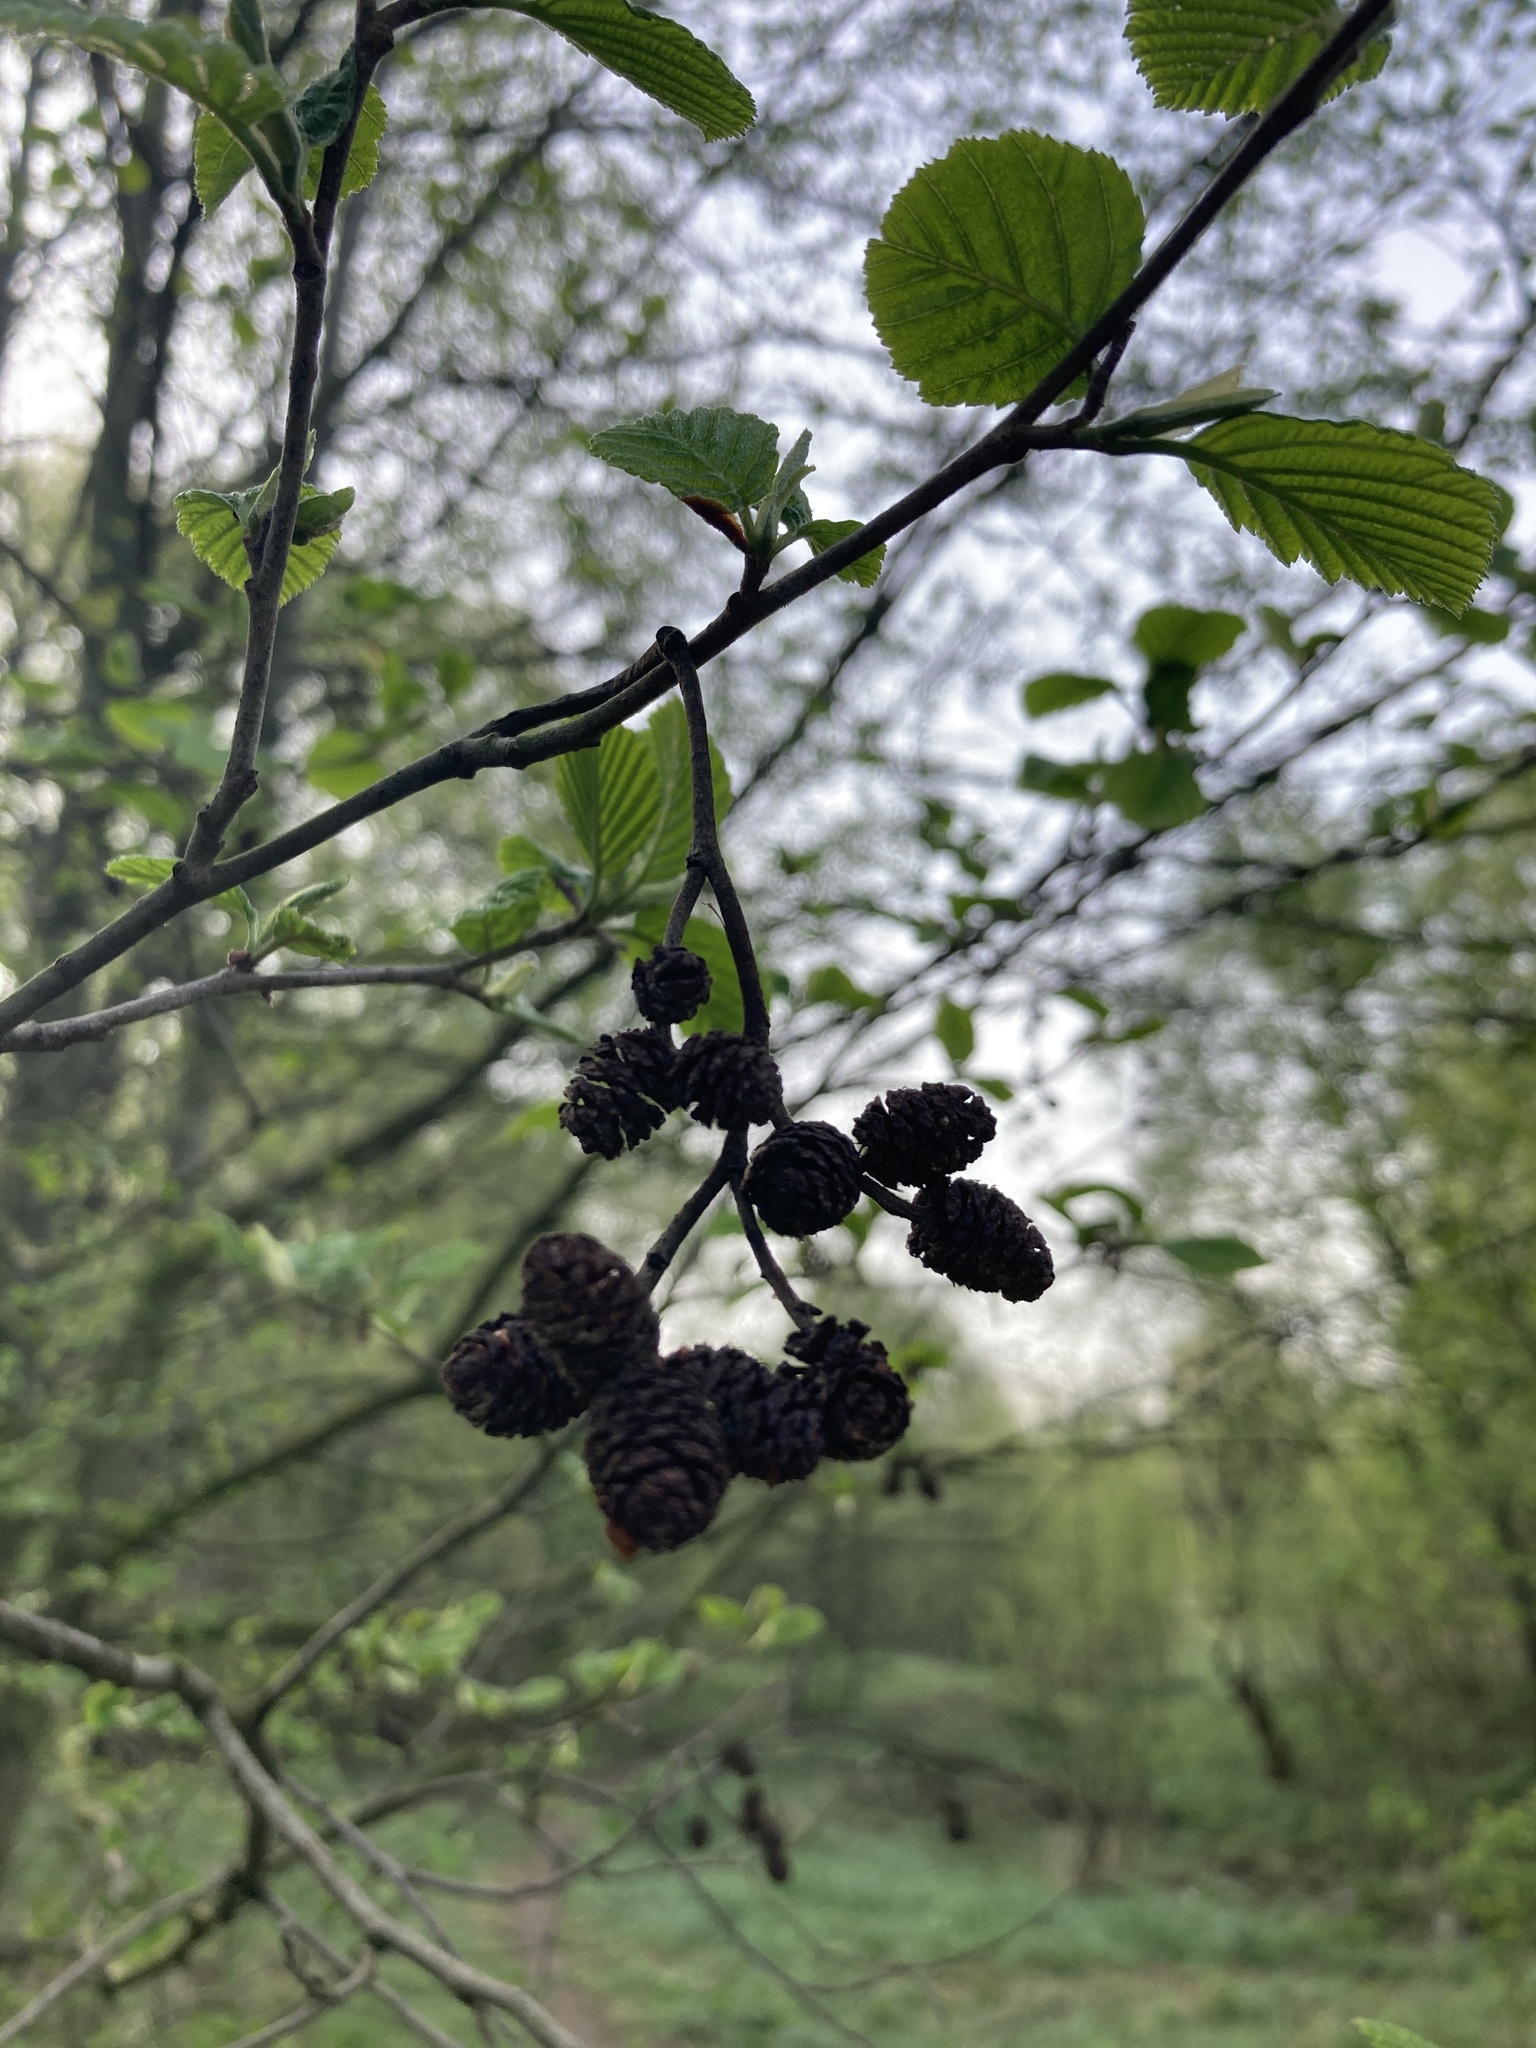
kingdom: Plantae
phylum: Tracheophyta
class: Magnoliopsida
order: Fagales
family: Betulaceae
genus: Alnus
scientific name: Alnus incana
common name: Grey alder
